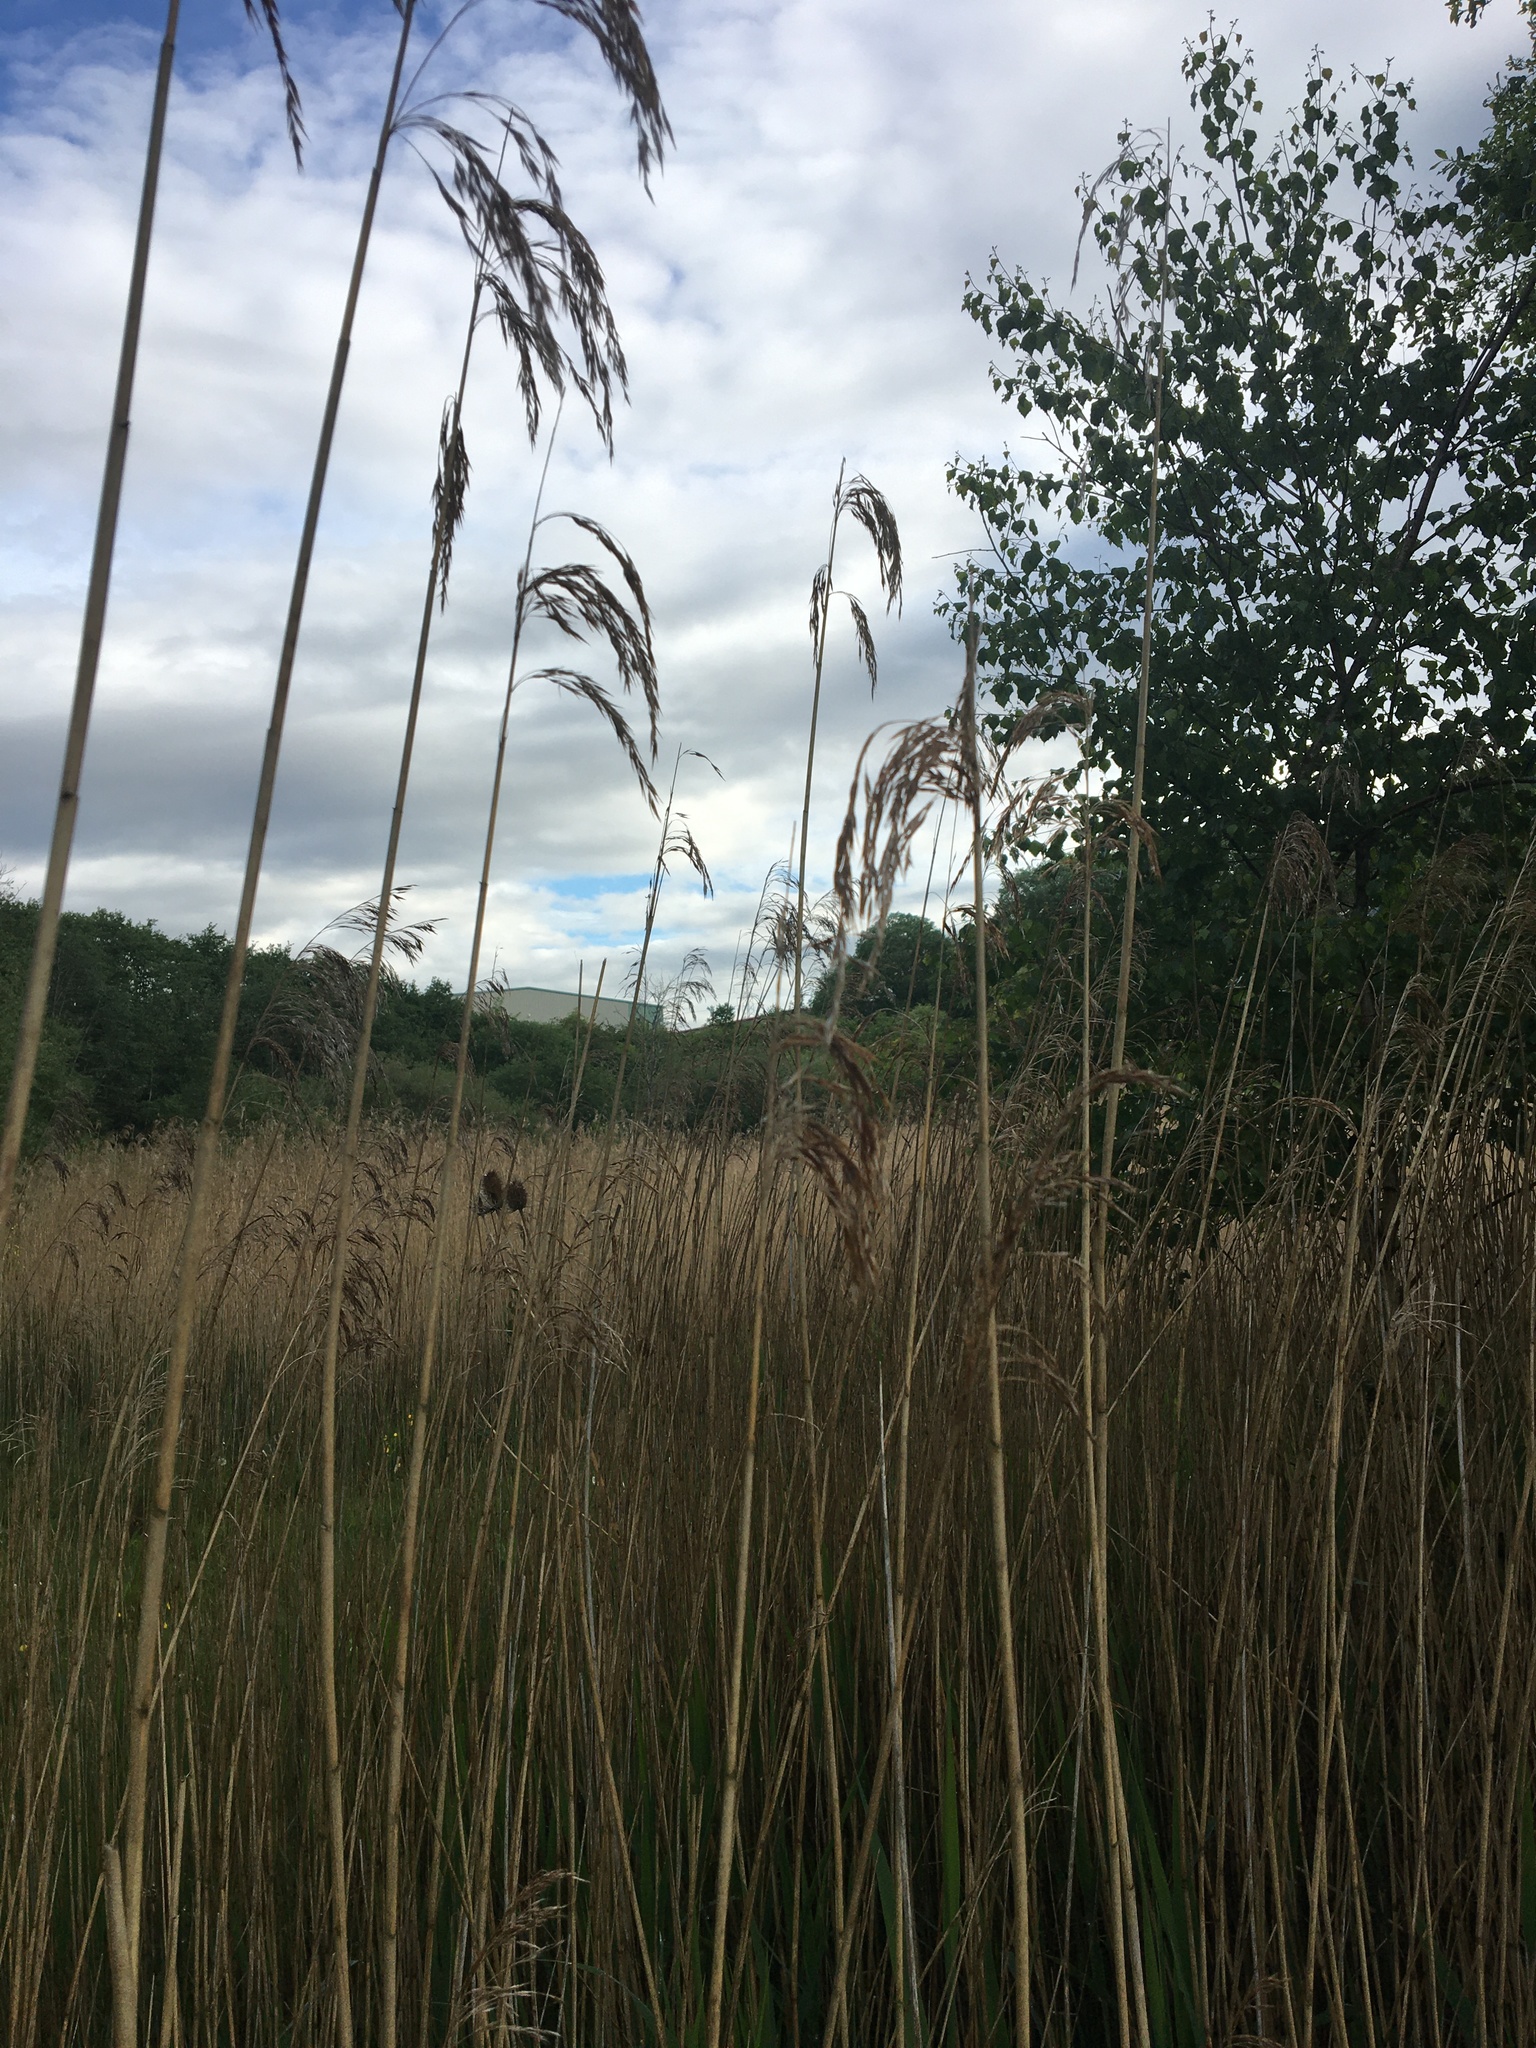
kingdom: Plantae
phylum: Tracheophyta
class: Liliopsida
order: Poales
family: Poaceae
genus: Phragmites
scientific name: Phragmites australis
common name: Common reed
